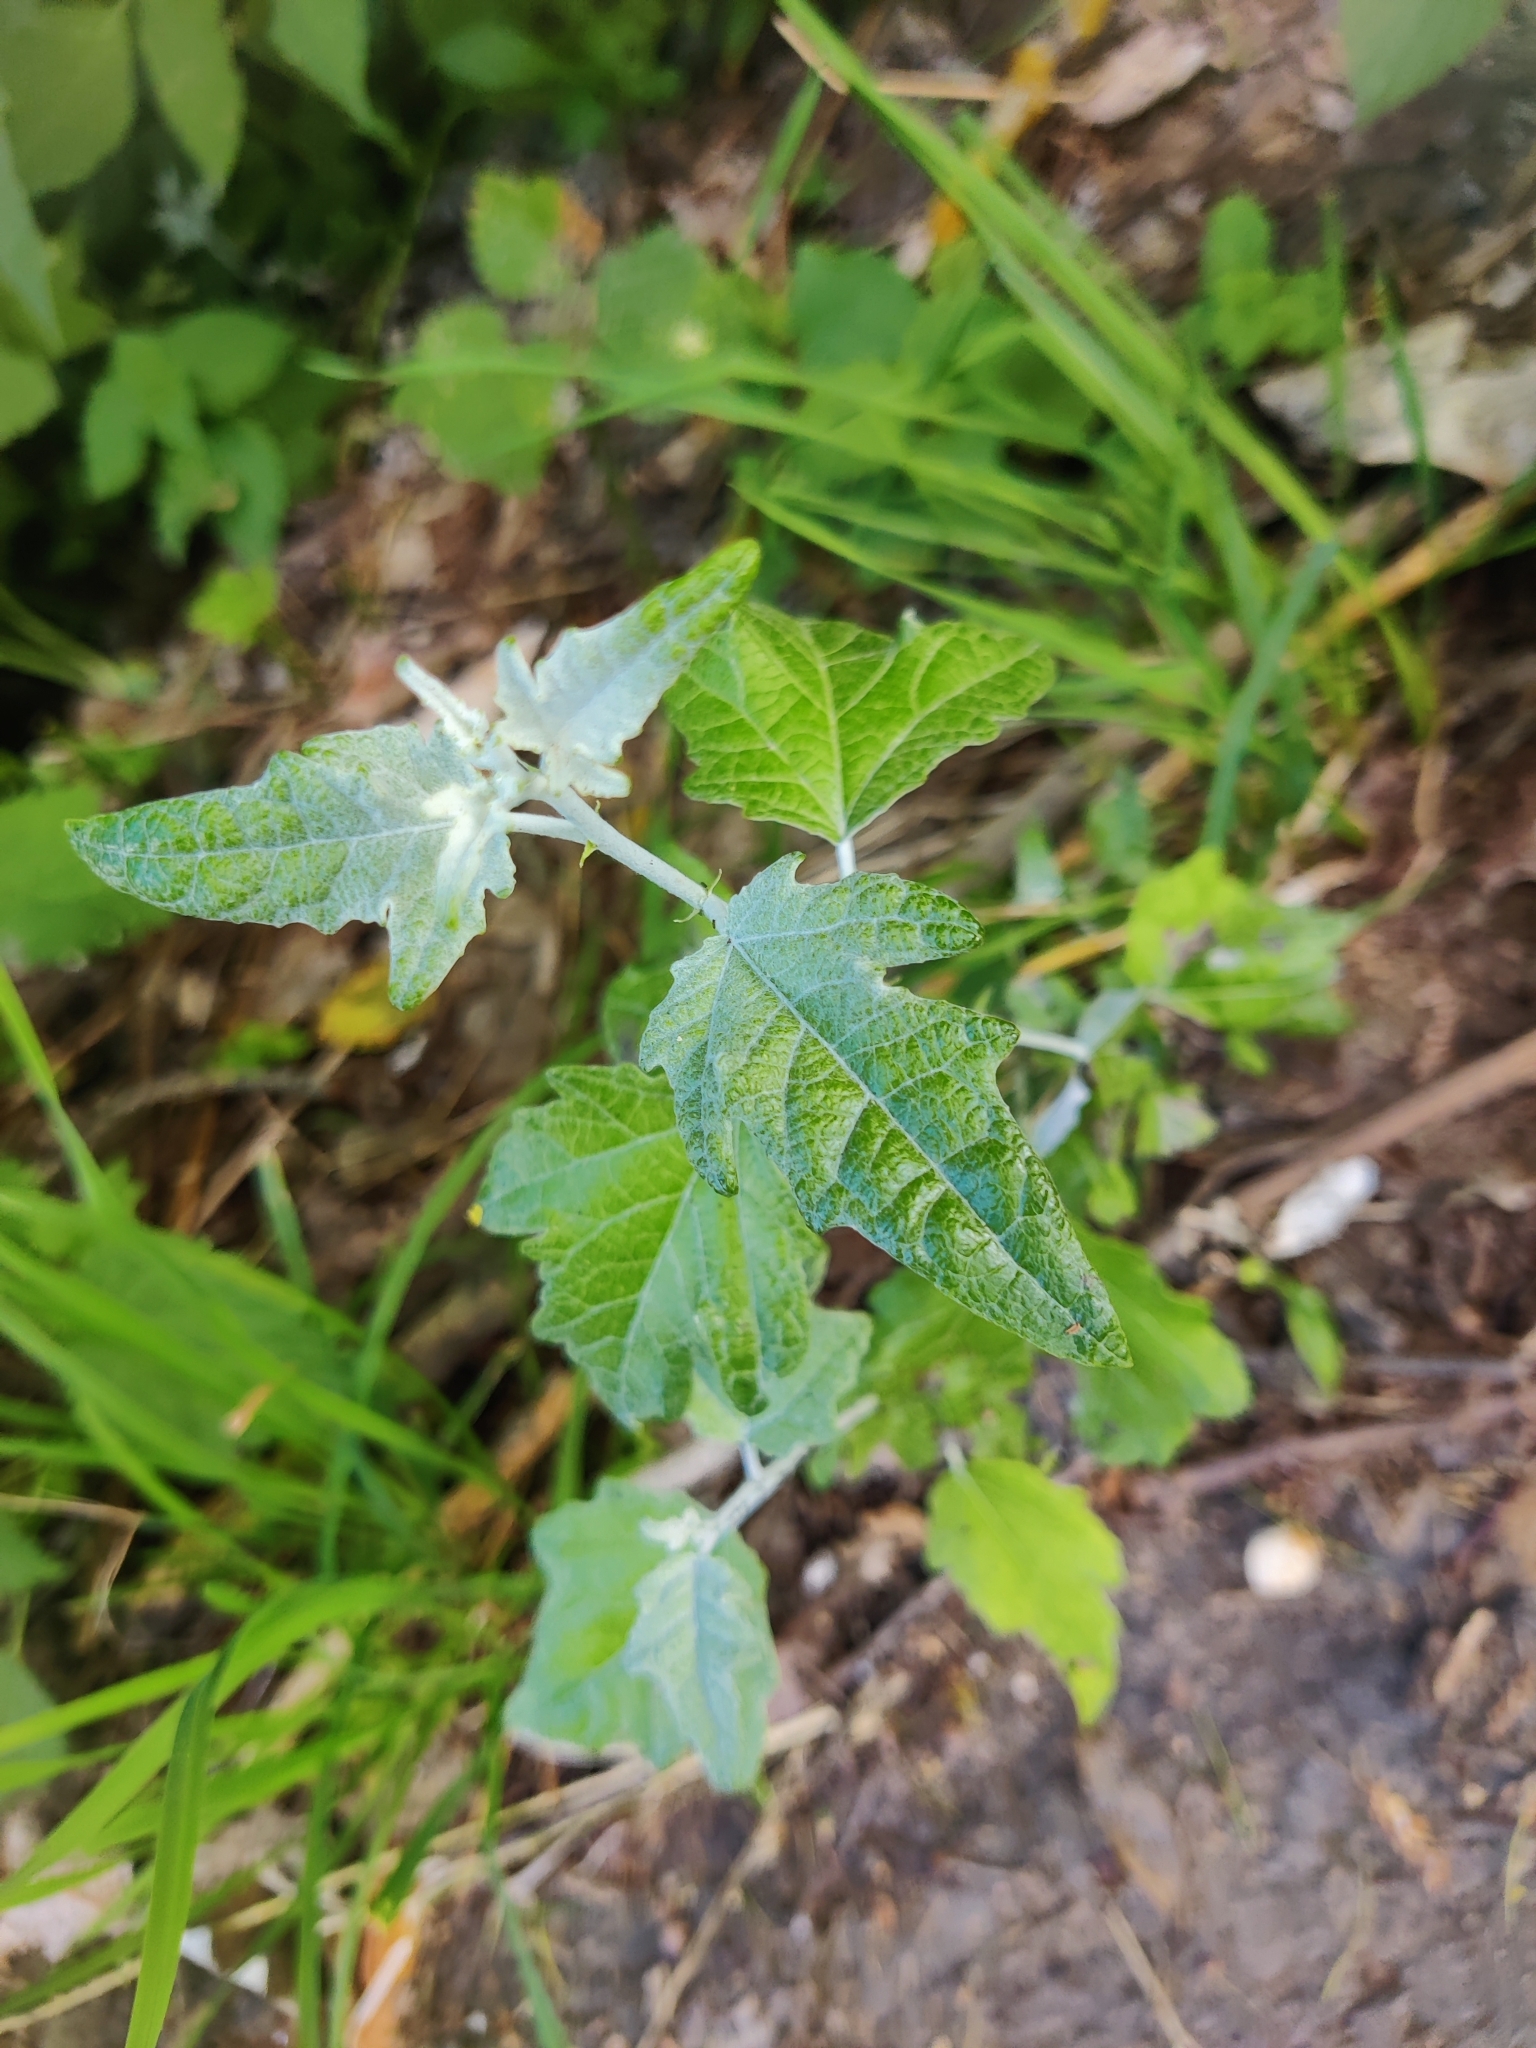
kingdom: Plantae
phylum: Tracheophyta
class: Magnoliopsida
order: Malpighiales
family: Salicaceae
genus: Populus
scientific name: Populus alba
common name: White poplar
